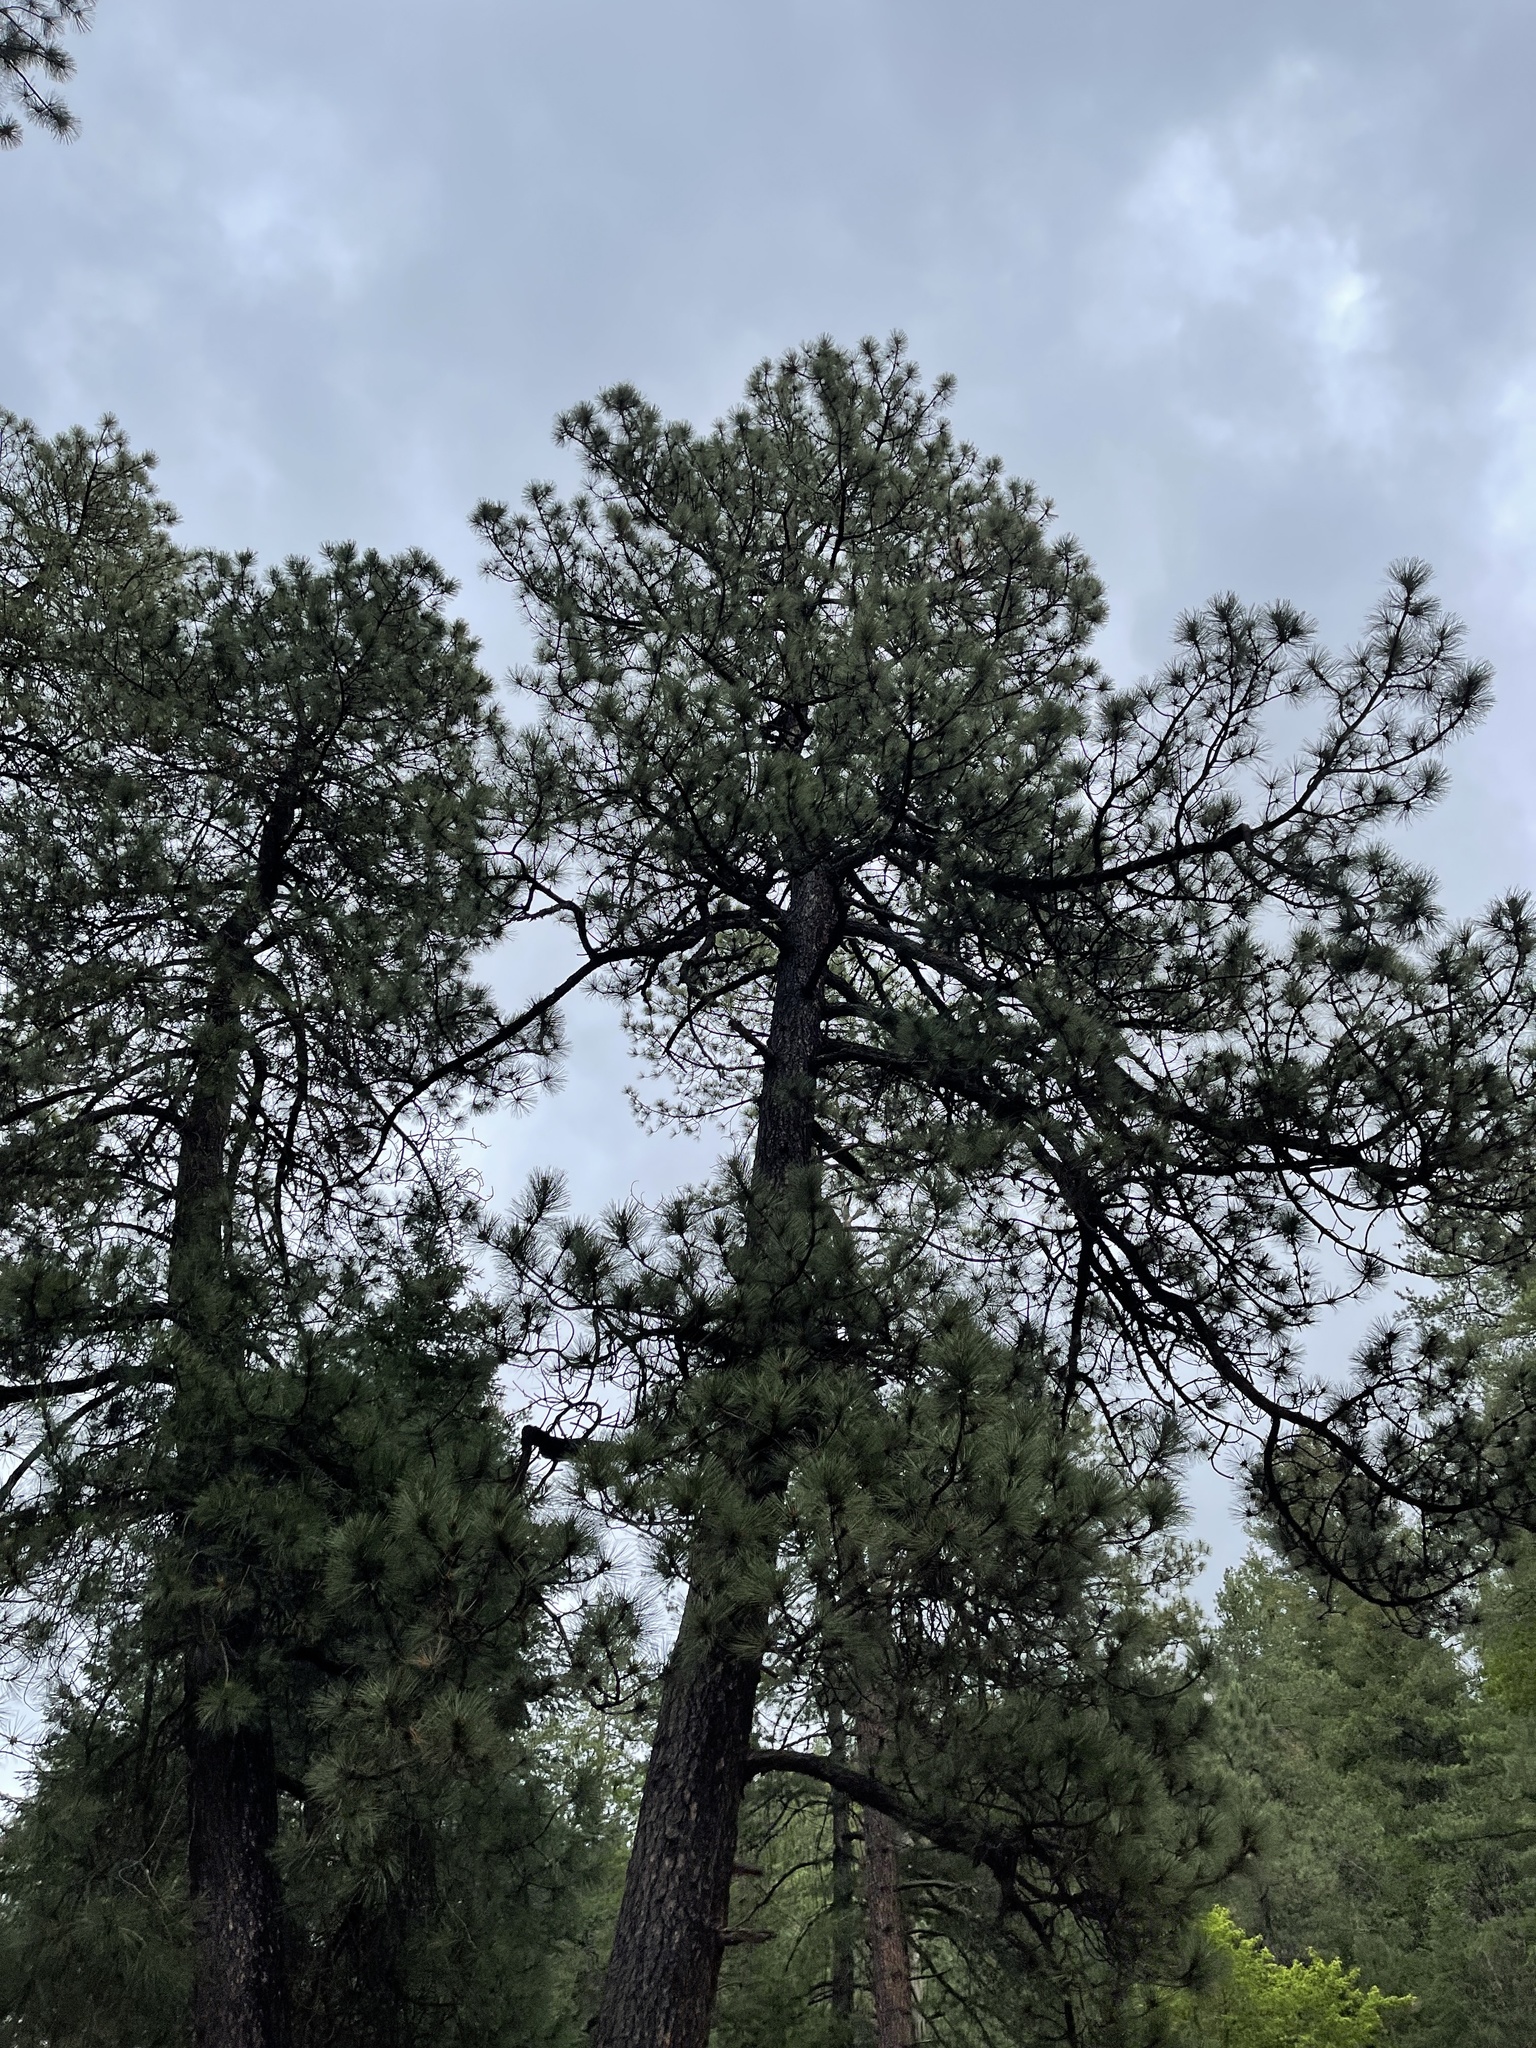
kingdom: Plantae
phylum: Tracheophyta
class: Pinopsida
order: Pinales
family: Pinaceae
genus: Pinus
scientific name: Pinus ponderosa
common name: Western yellow-pine
